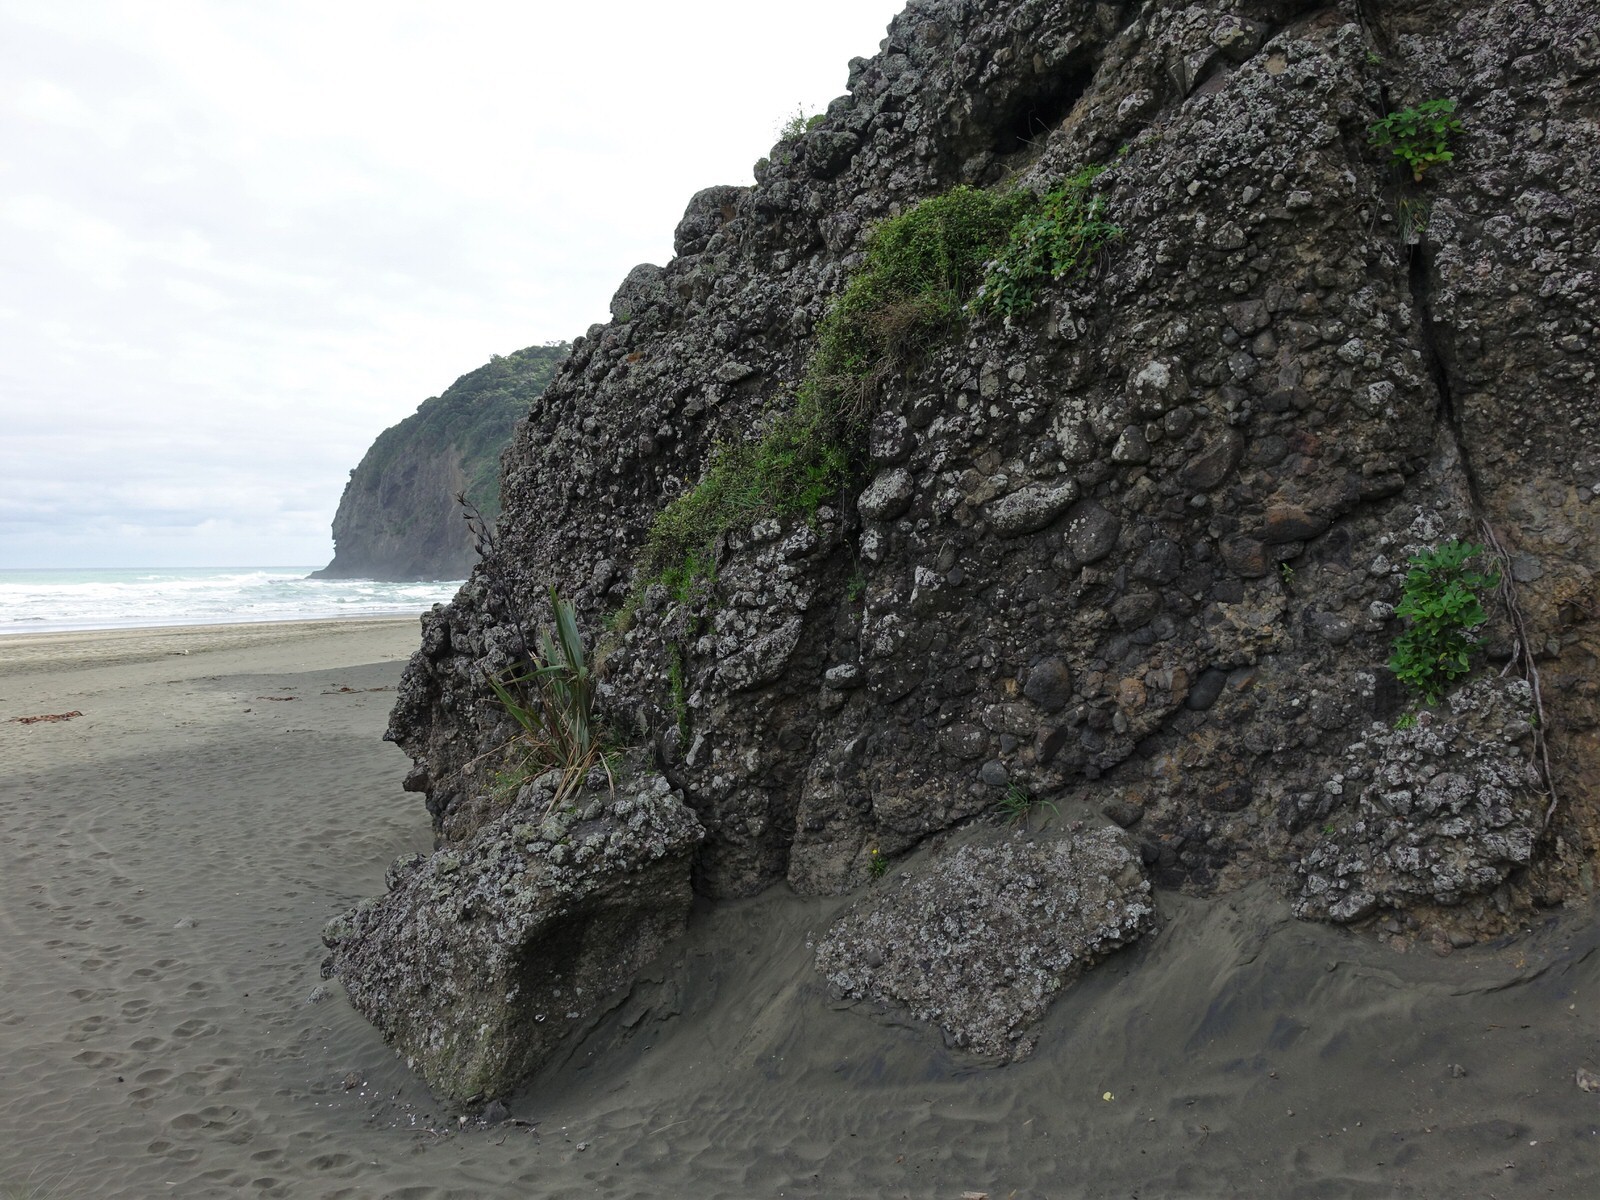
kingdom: Plantae
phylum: Tracheophyta
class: Magnoliopsida
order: Lamiales
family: Plantaginaceae
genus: Veronica
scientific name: Veronica obtusata
